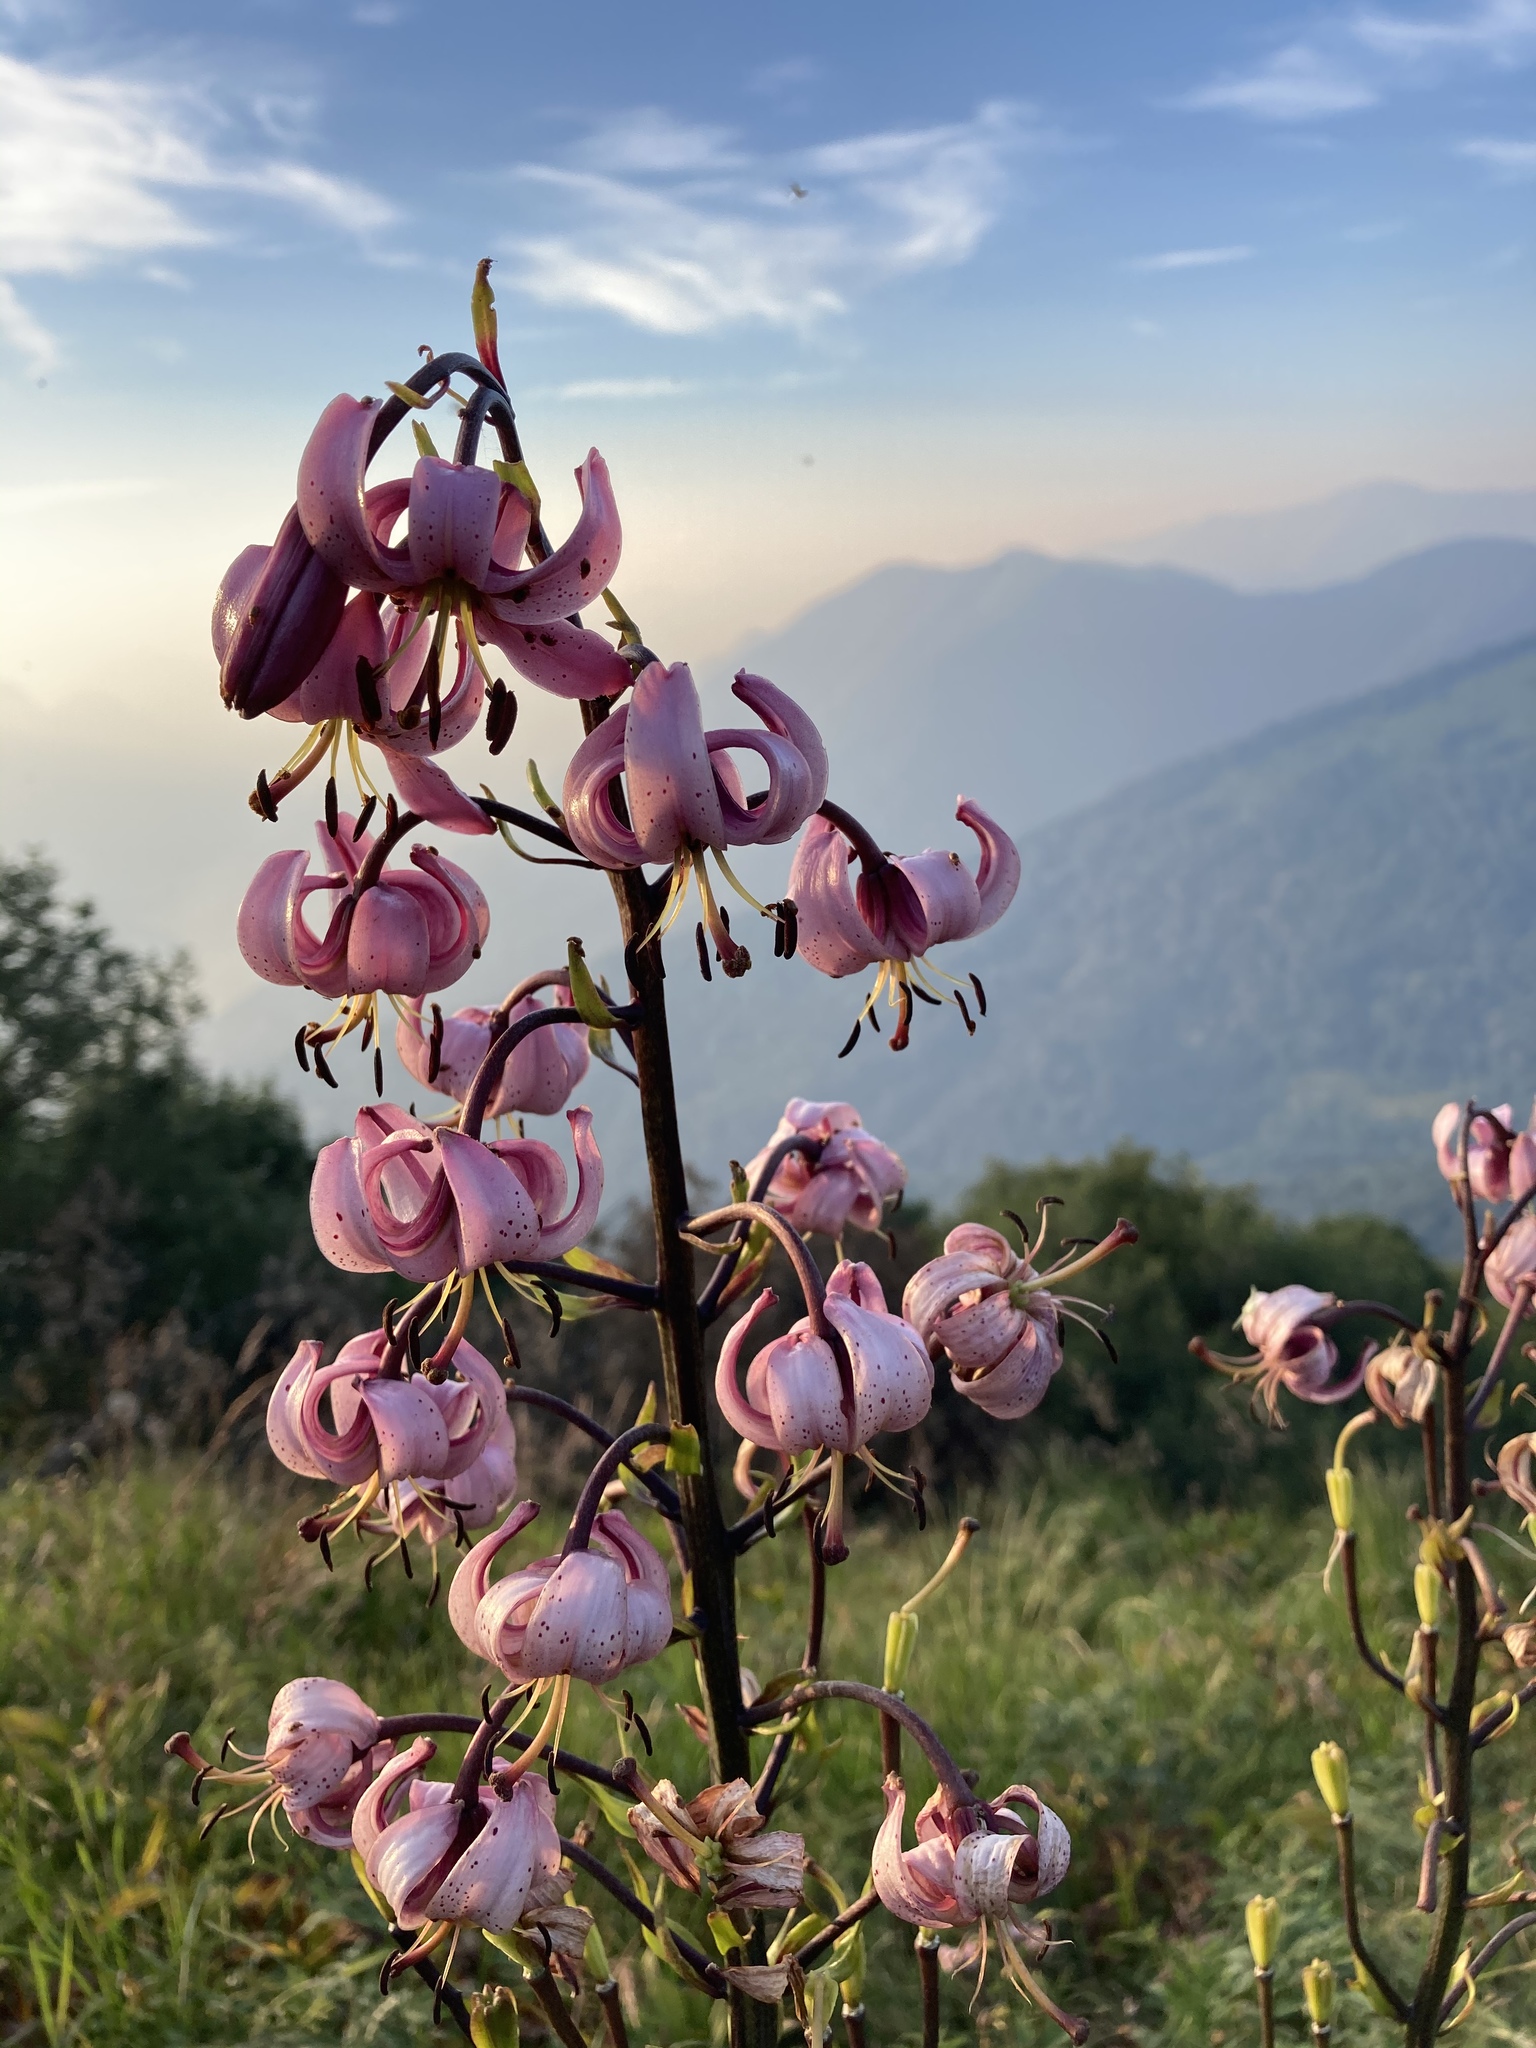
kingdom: Plantae
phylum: Tracheophyta
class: Liliopsida
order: Liliales
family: Liliaceae
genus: Lilium
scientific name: Lilium martagon
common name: Martagon lily
